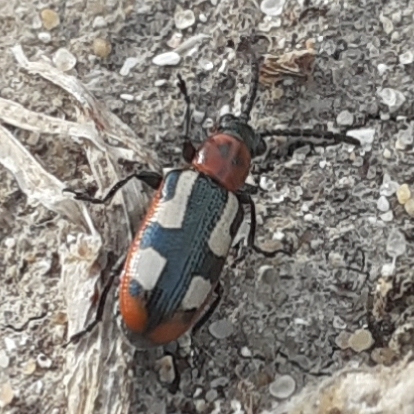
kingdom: Animalia
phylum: Arthropoda
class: Insecta
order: Coleoptera
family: Chrysomelidae
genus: Crioceris
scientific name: Crioceris asparagi
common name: Asparagus beetle
